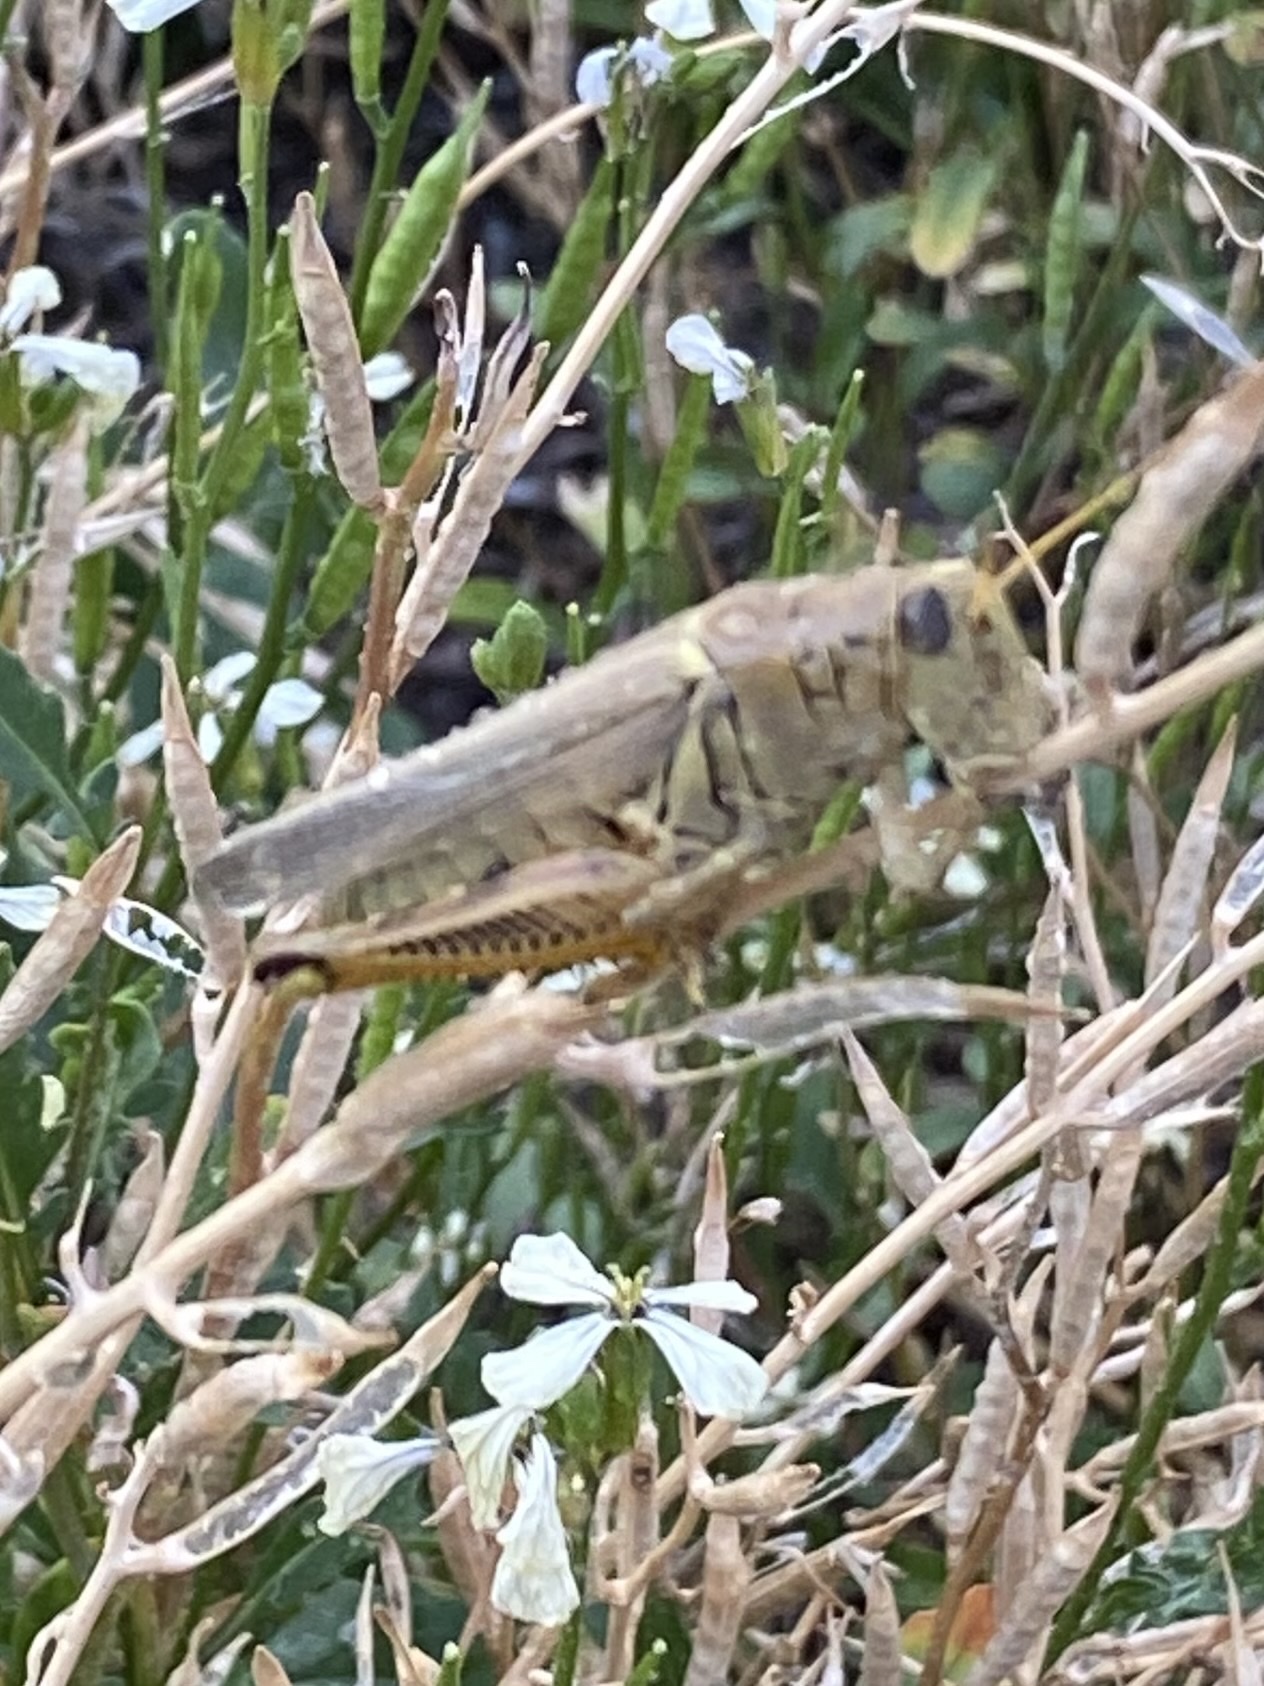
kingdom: Animalia
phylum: Arthropoda
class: Insecta
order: Orthoptera
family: Acrididae
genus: Melanoplus
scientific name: Melanoplus differentialis
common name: Differential grasshopper
